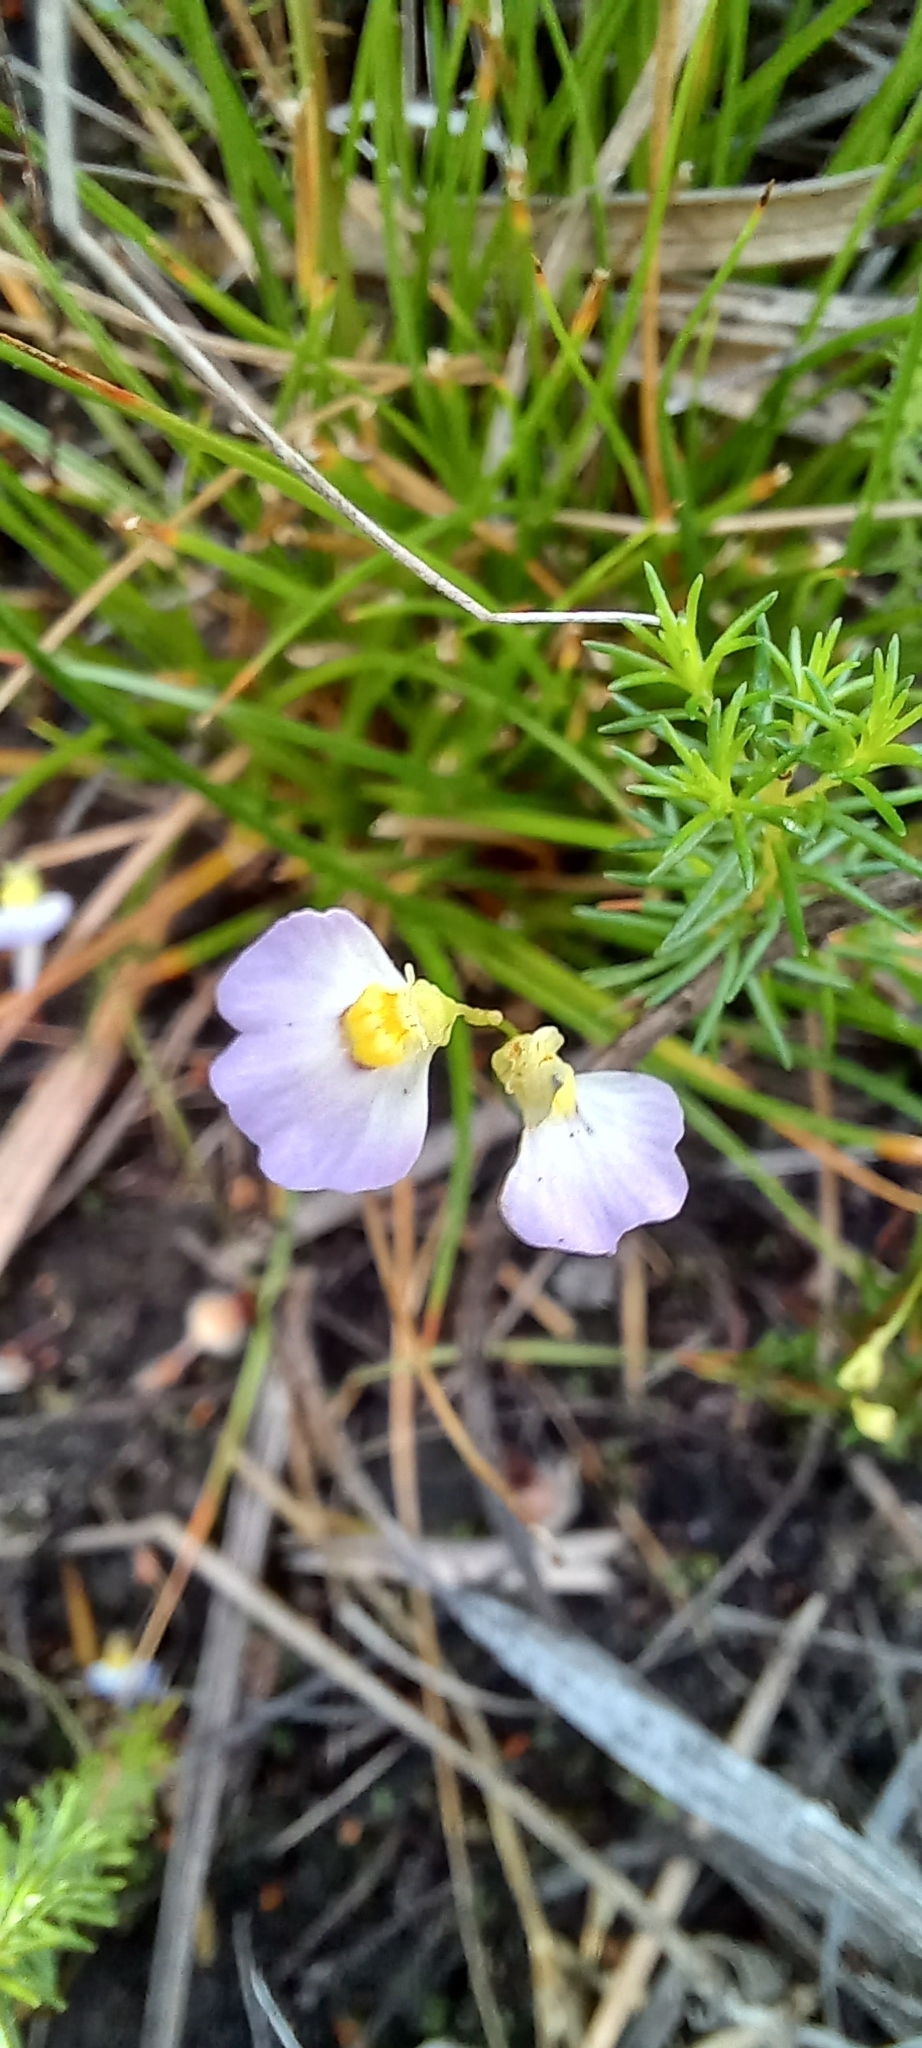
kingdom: Plantae
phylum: Tracheophyta
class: Magnoliopsida
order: Lamiales
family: Lentibulariaceae
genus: Utricularia
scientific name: Utricularia bisquamata
